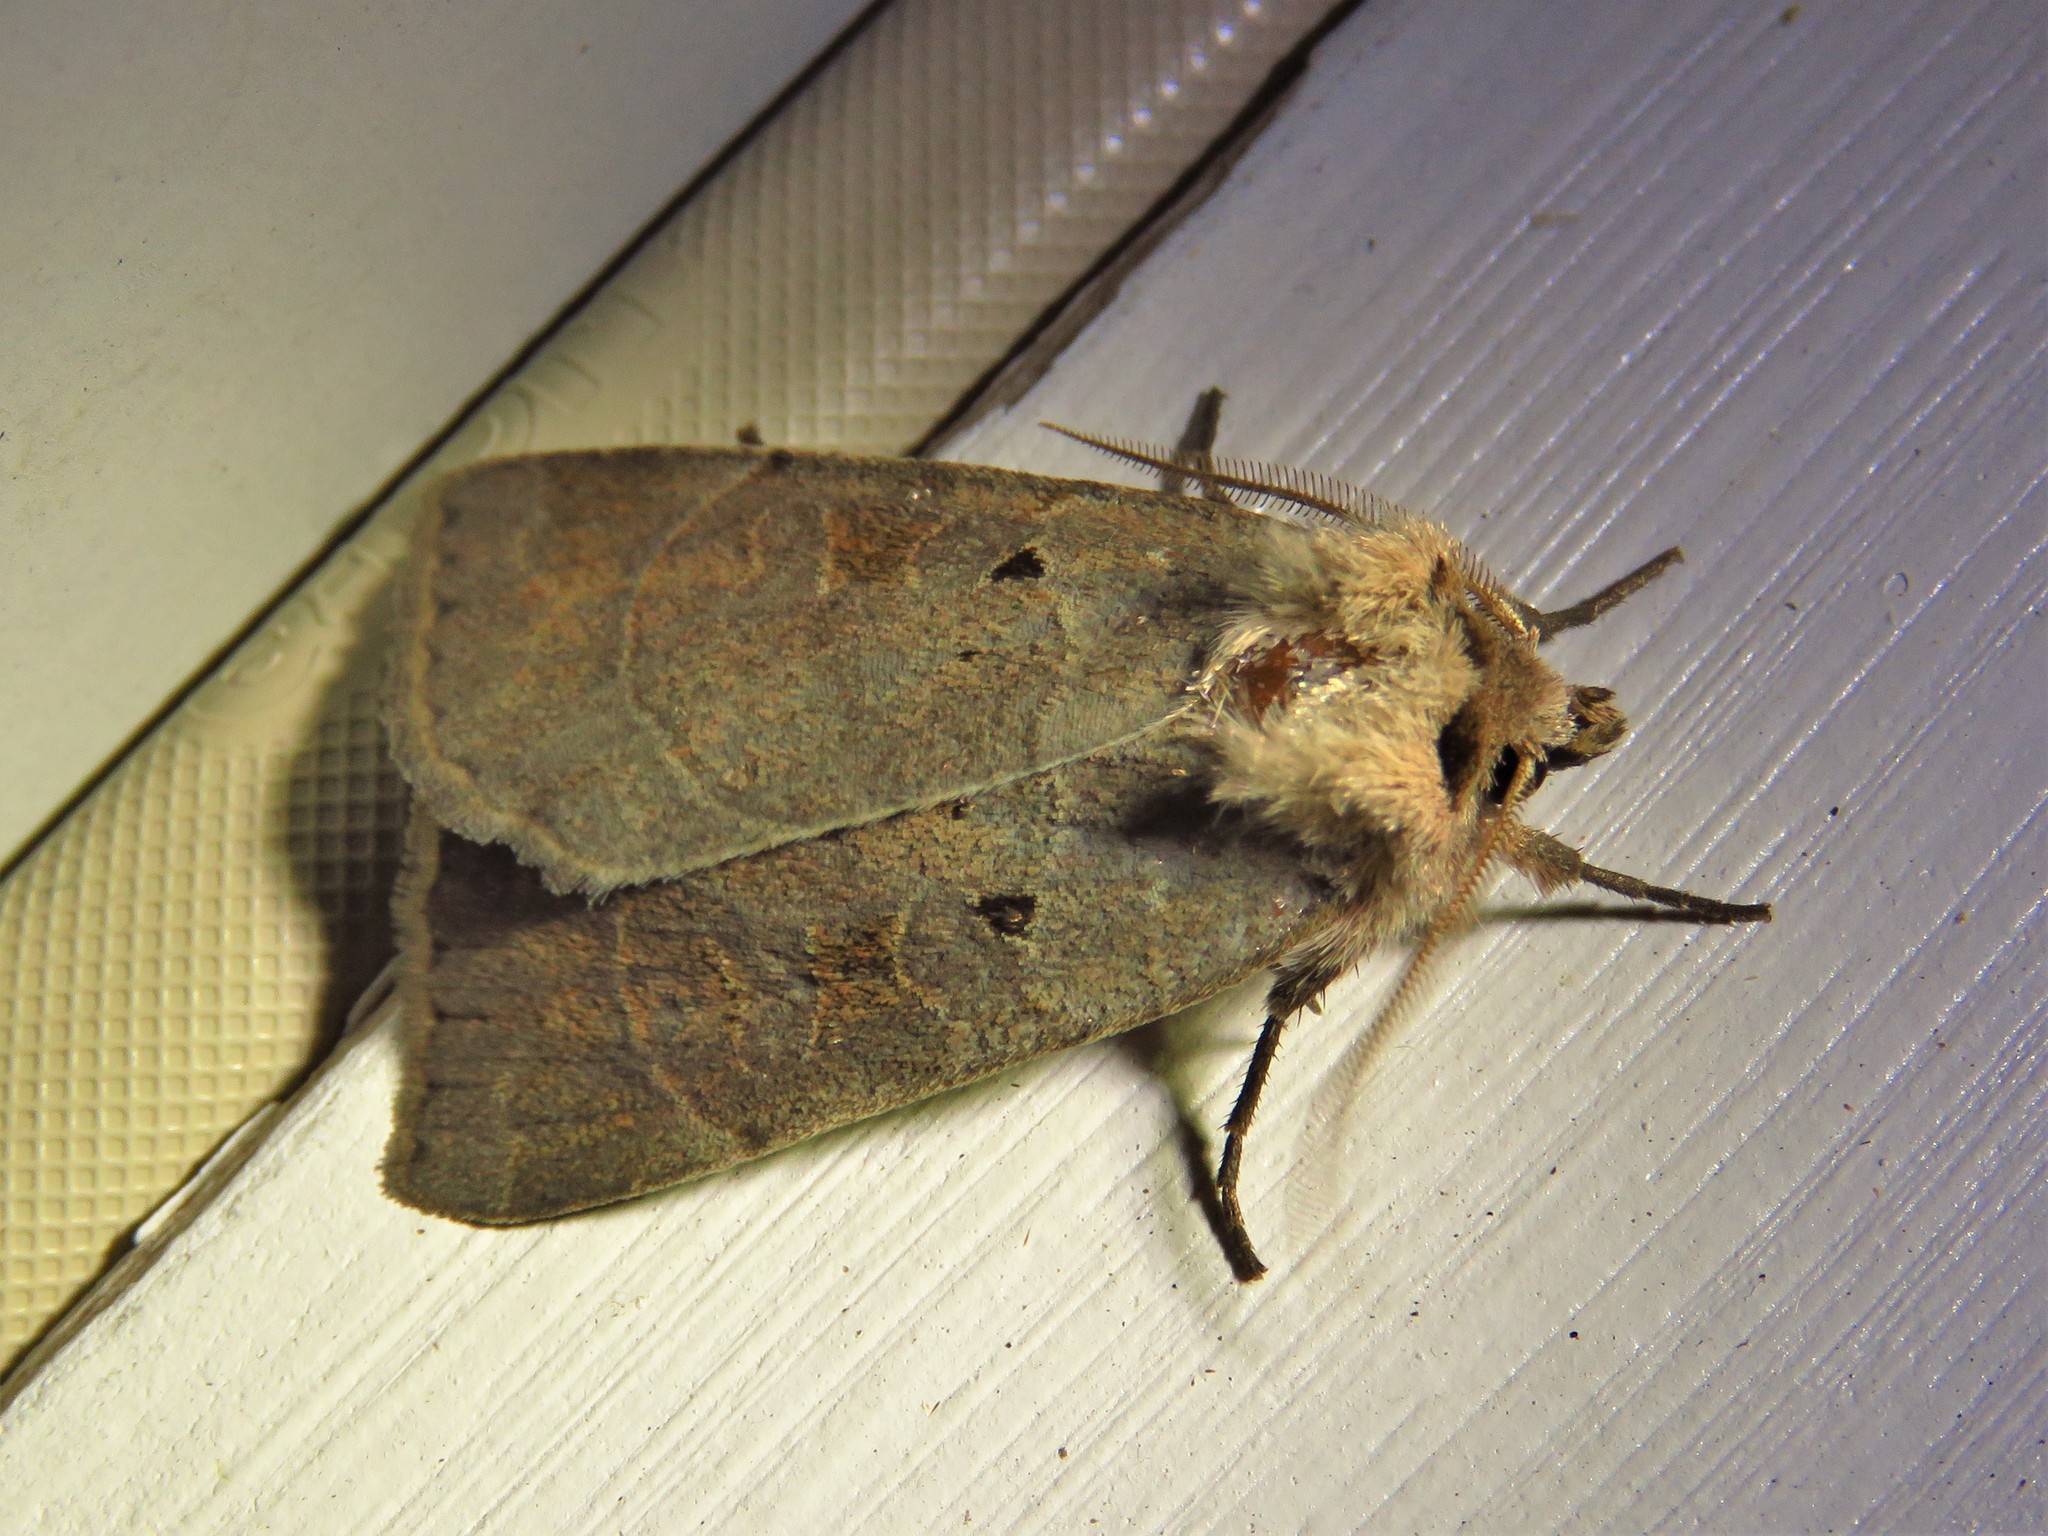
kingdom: Animalia
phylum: Arthropoda
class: Insecta
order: Lepidoptera
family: Noctuidae
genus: Agnorisma
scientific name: Agnorisma badinodis
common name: Pale-banded dart
